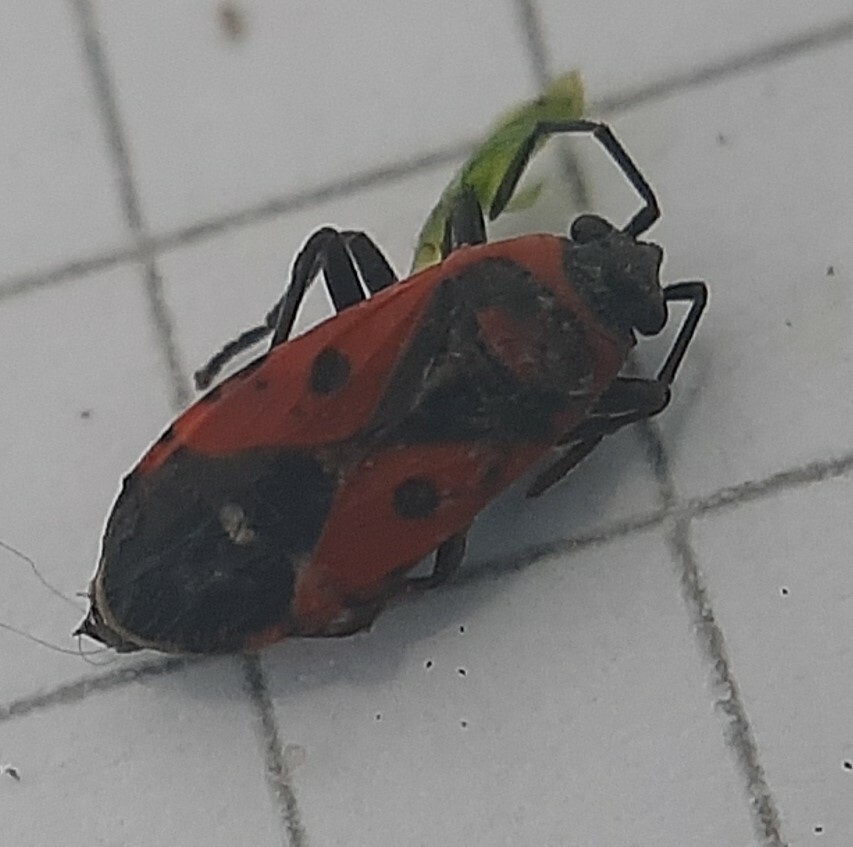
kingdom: Animalia
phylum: Arthropoda
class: Insecta
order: Hemiptera
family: Lygaeidae
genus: Melanocoryphus
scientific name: Melanocoryphus albomaculatus
